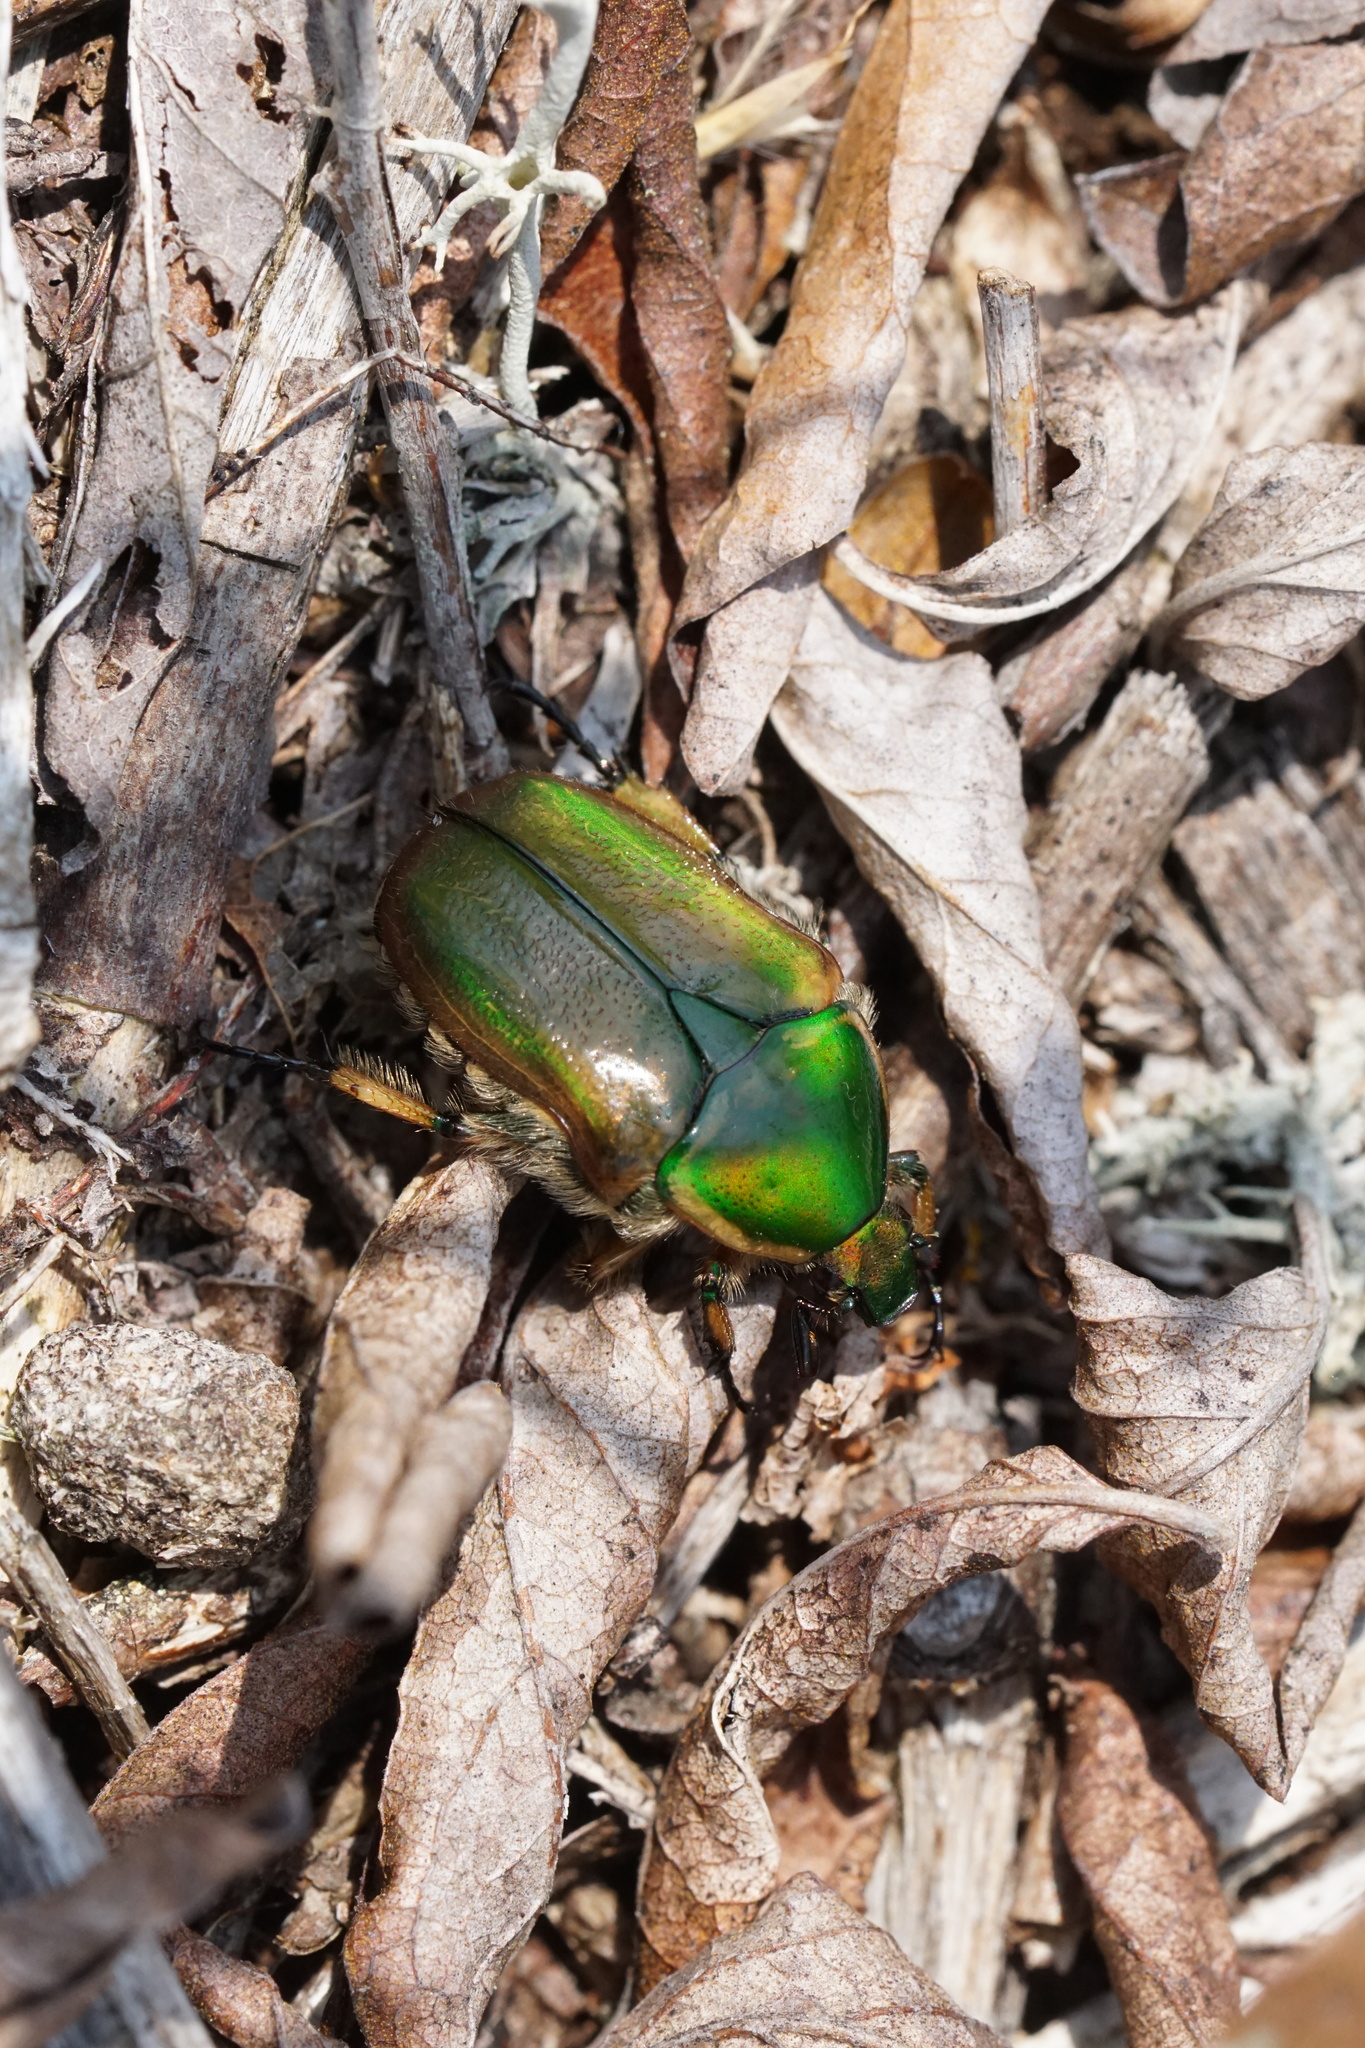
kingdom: Animalia
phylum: Arthropoda
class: Insecta
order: Coleoptera
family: Scarabaeidae
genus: Euphoria
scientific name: Euphoria fulgida
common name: Emerald euphoria
